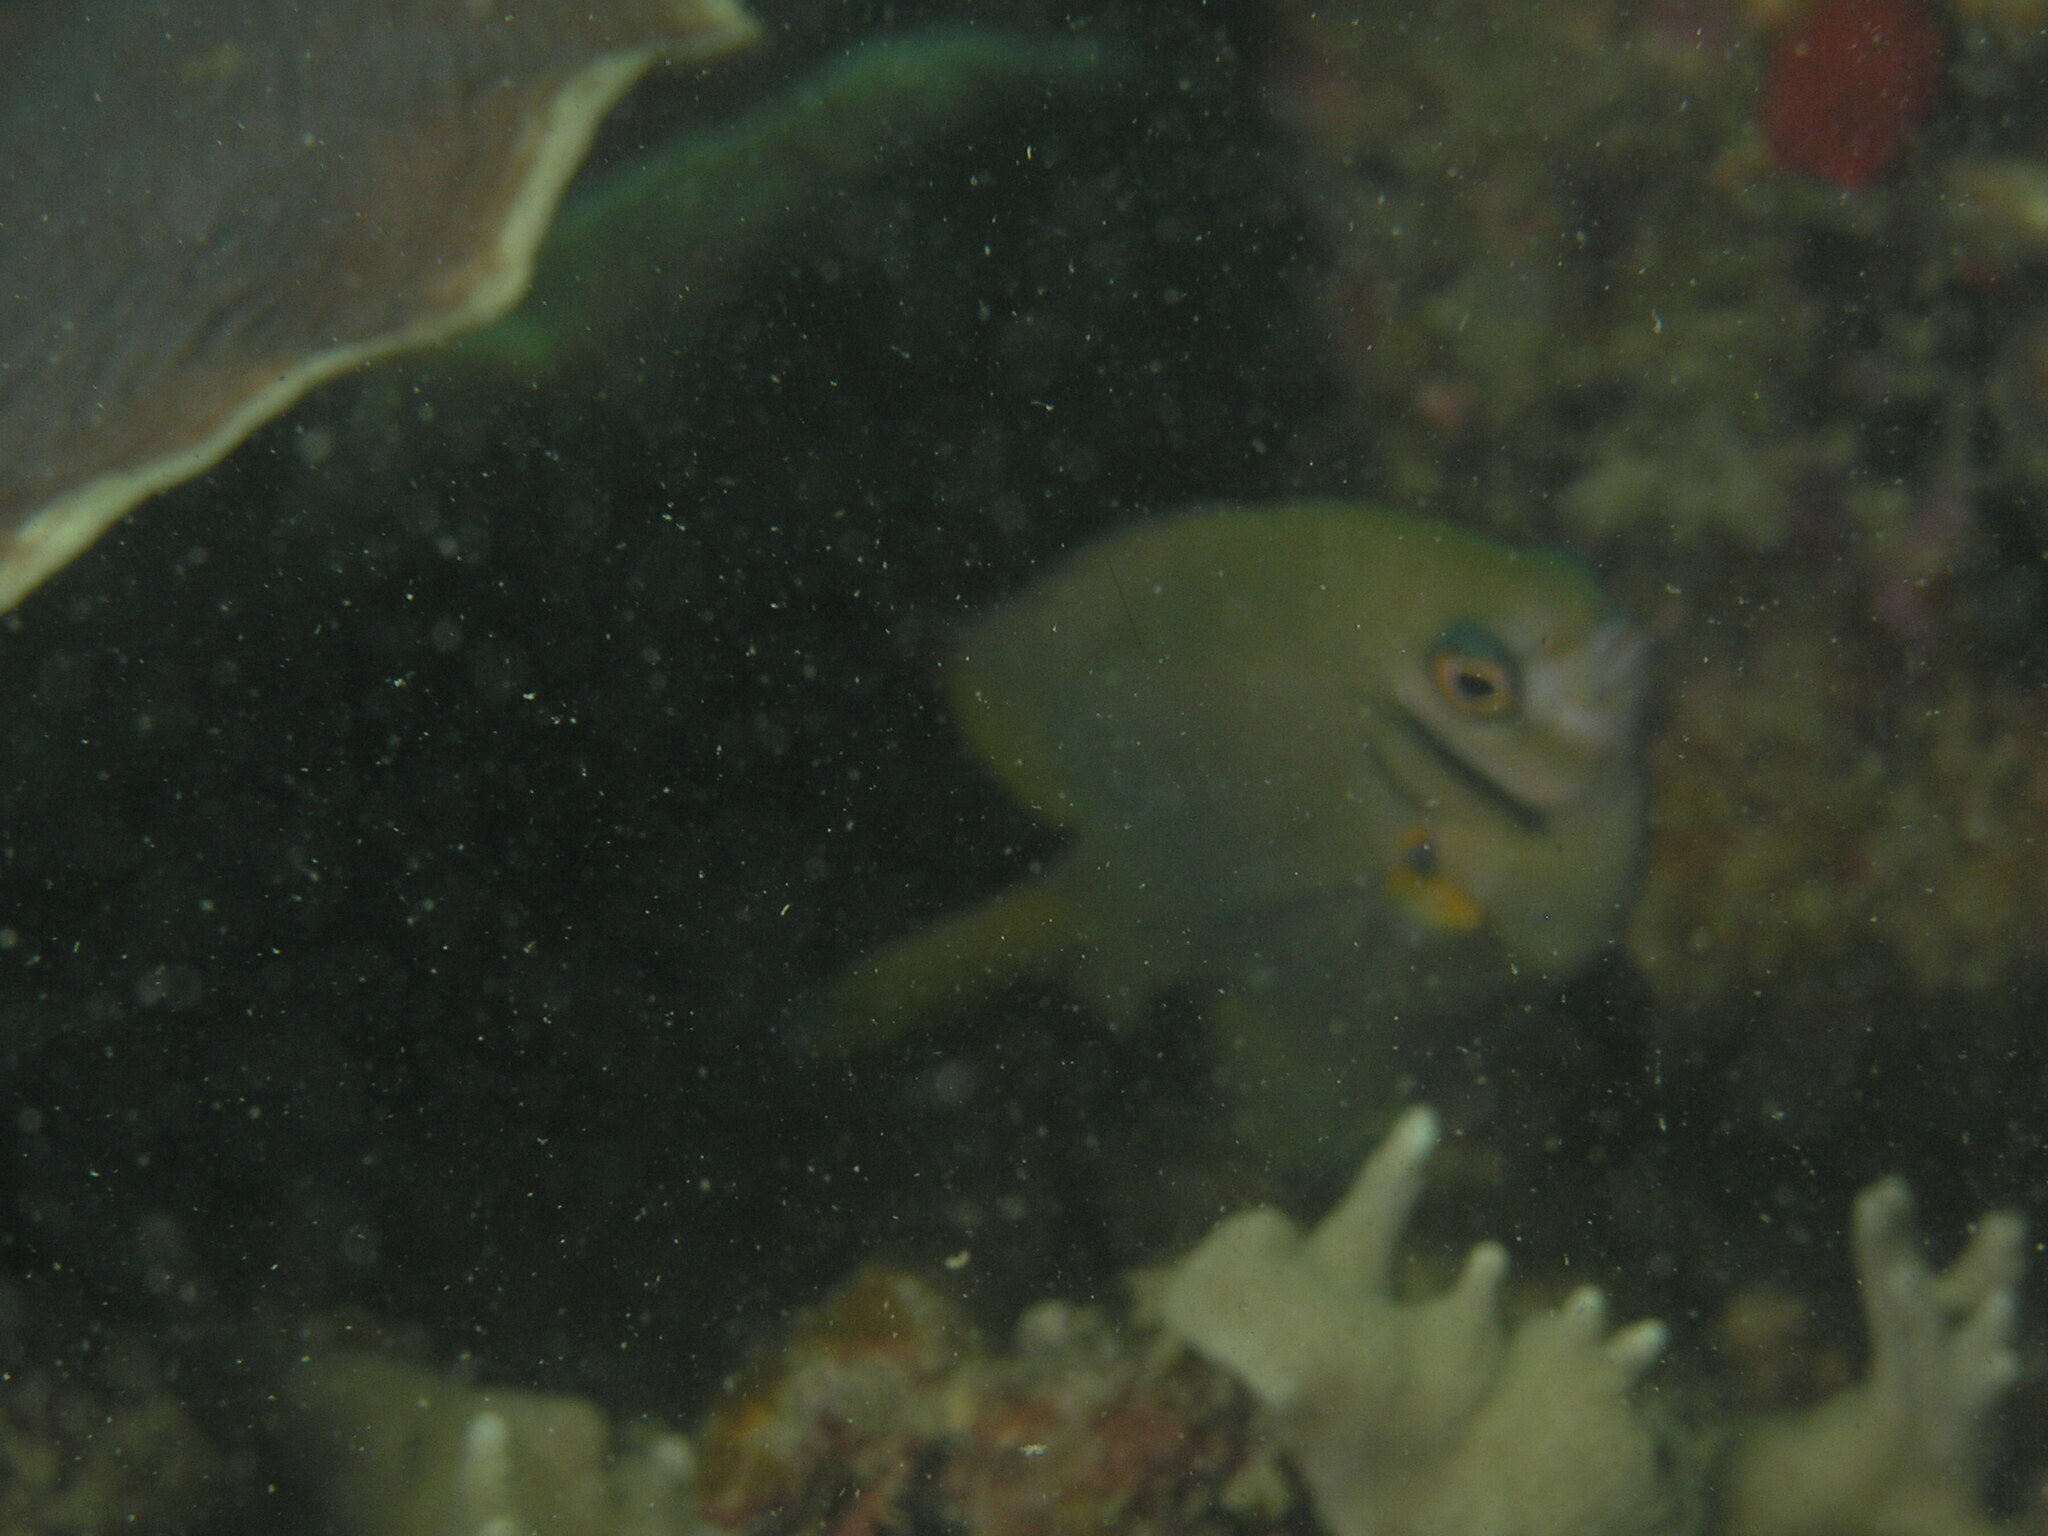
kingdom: Animalia
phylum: Chordata
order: Perciformes
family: Pomacentridae
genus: Neoglyphidodon
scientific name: Neoglyphidodon nigroris
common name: Behn's damsel
